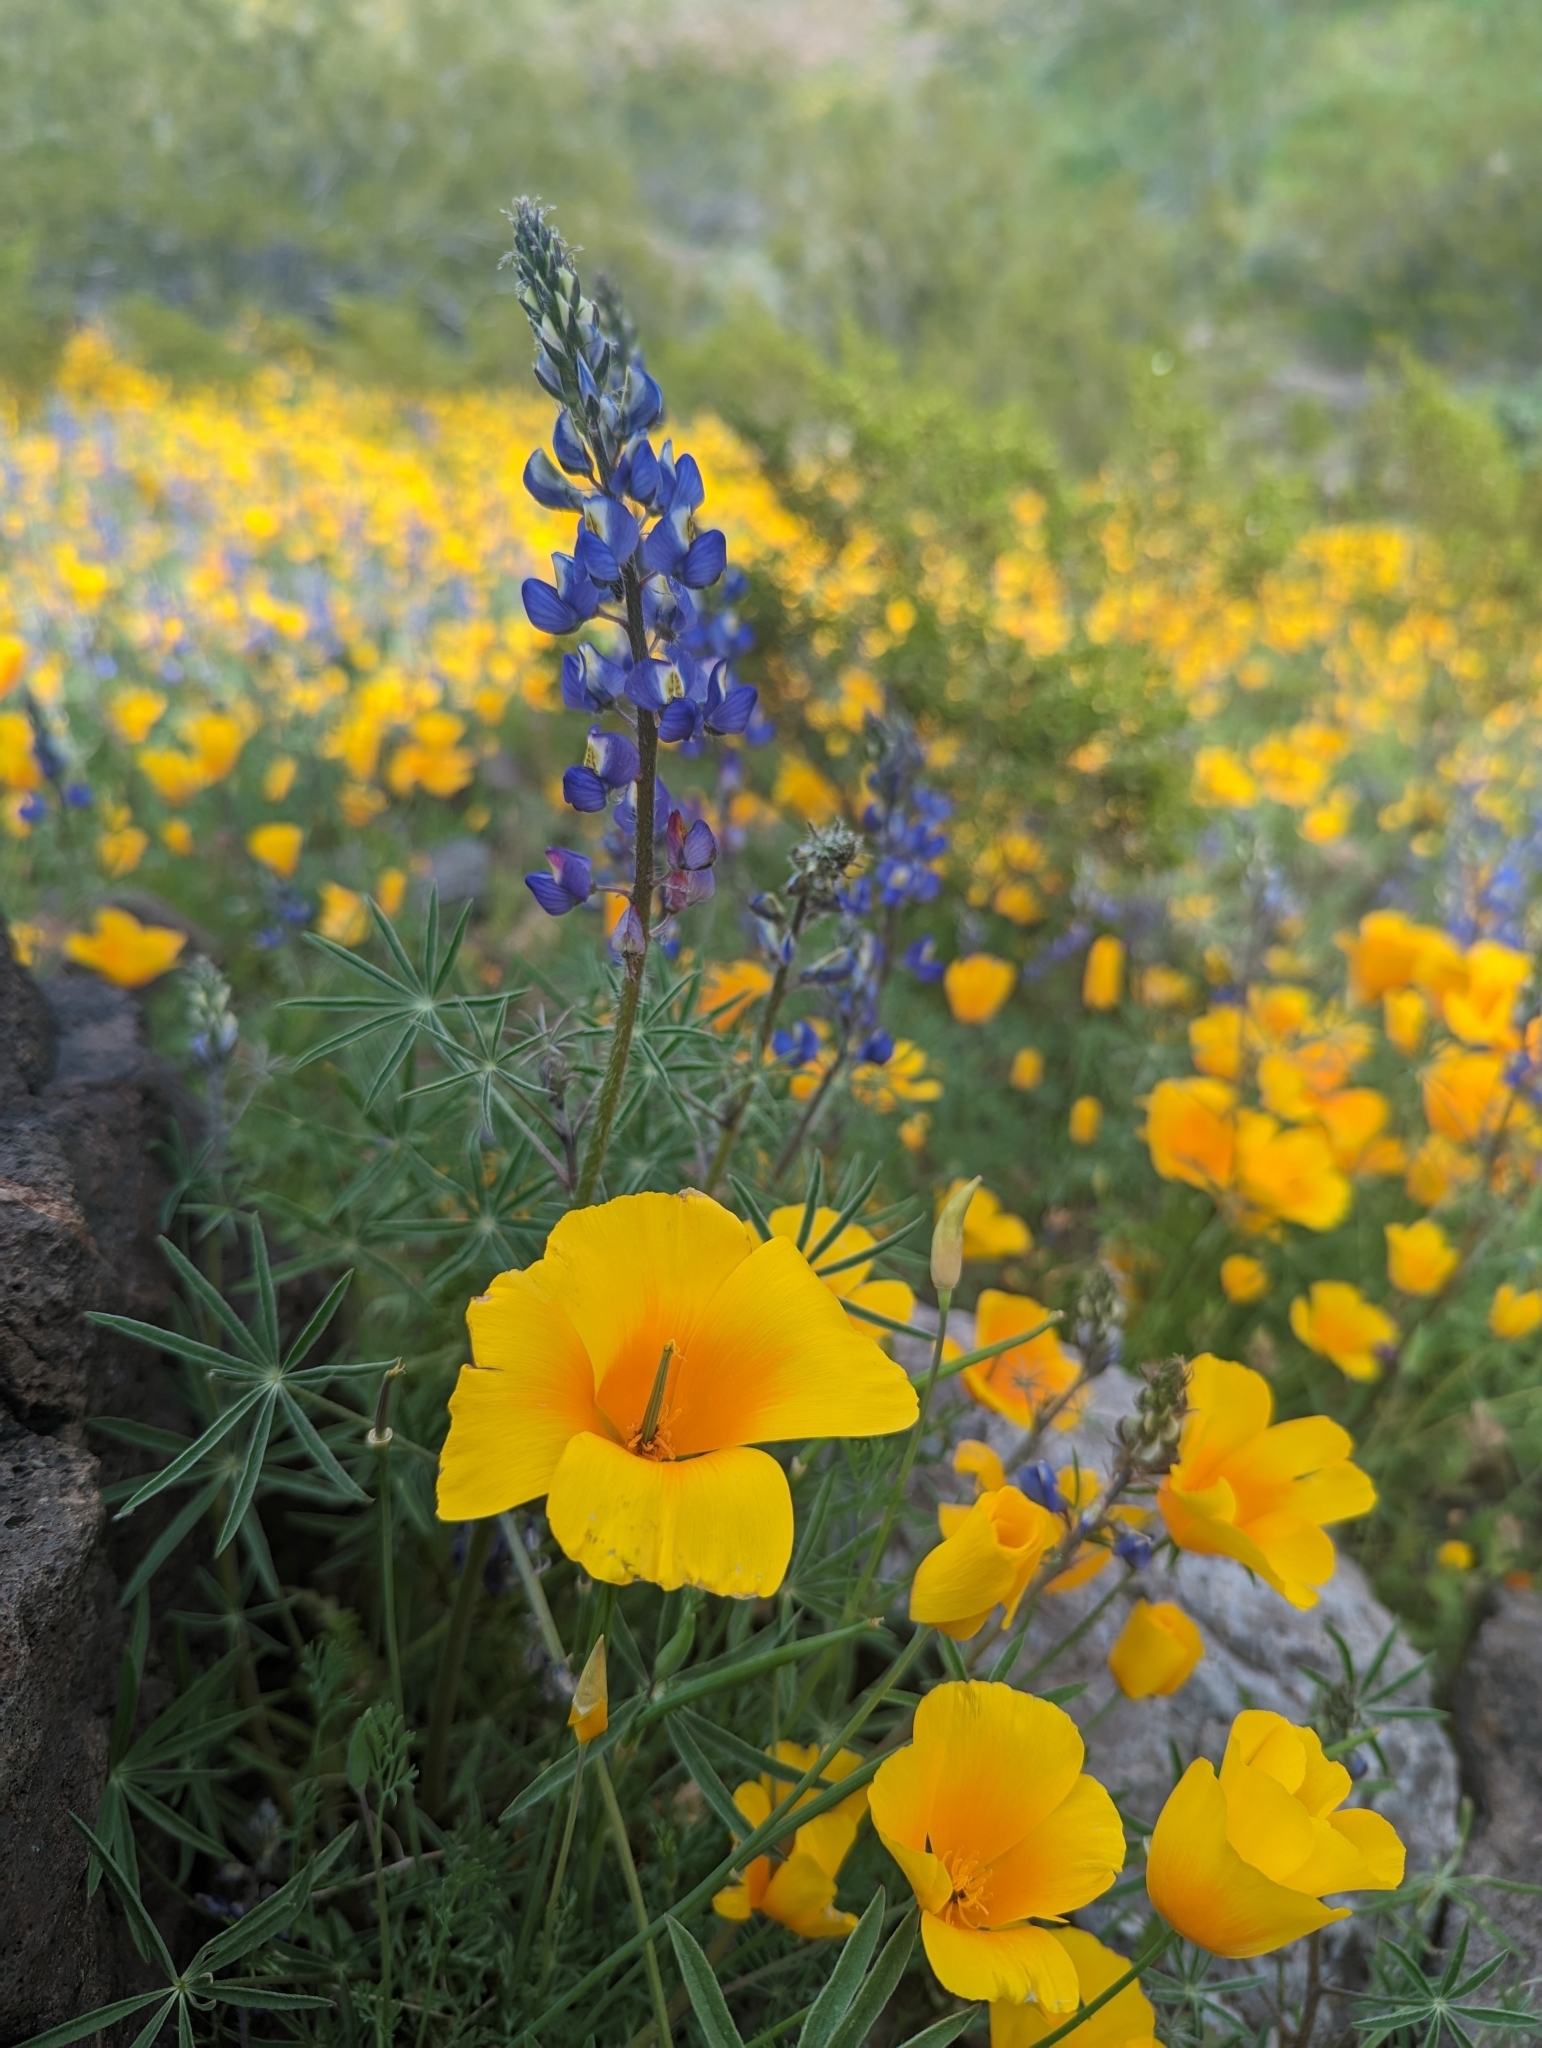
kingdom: Plantae
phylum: Tracheophyta
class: Magnoliopsida
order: Fabales
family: Fabaceae
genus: Lupinus
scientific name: Lupinus sparsiflorus
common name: Coulter's lupine
